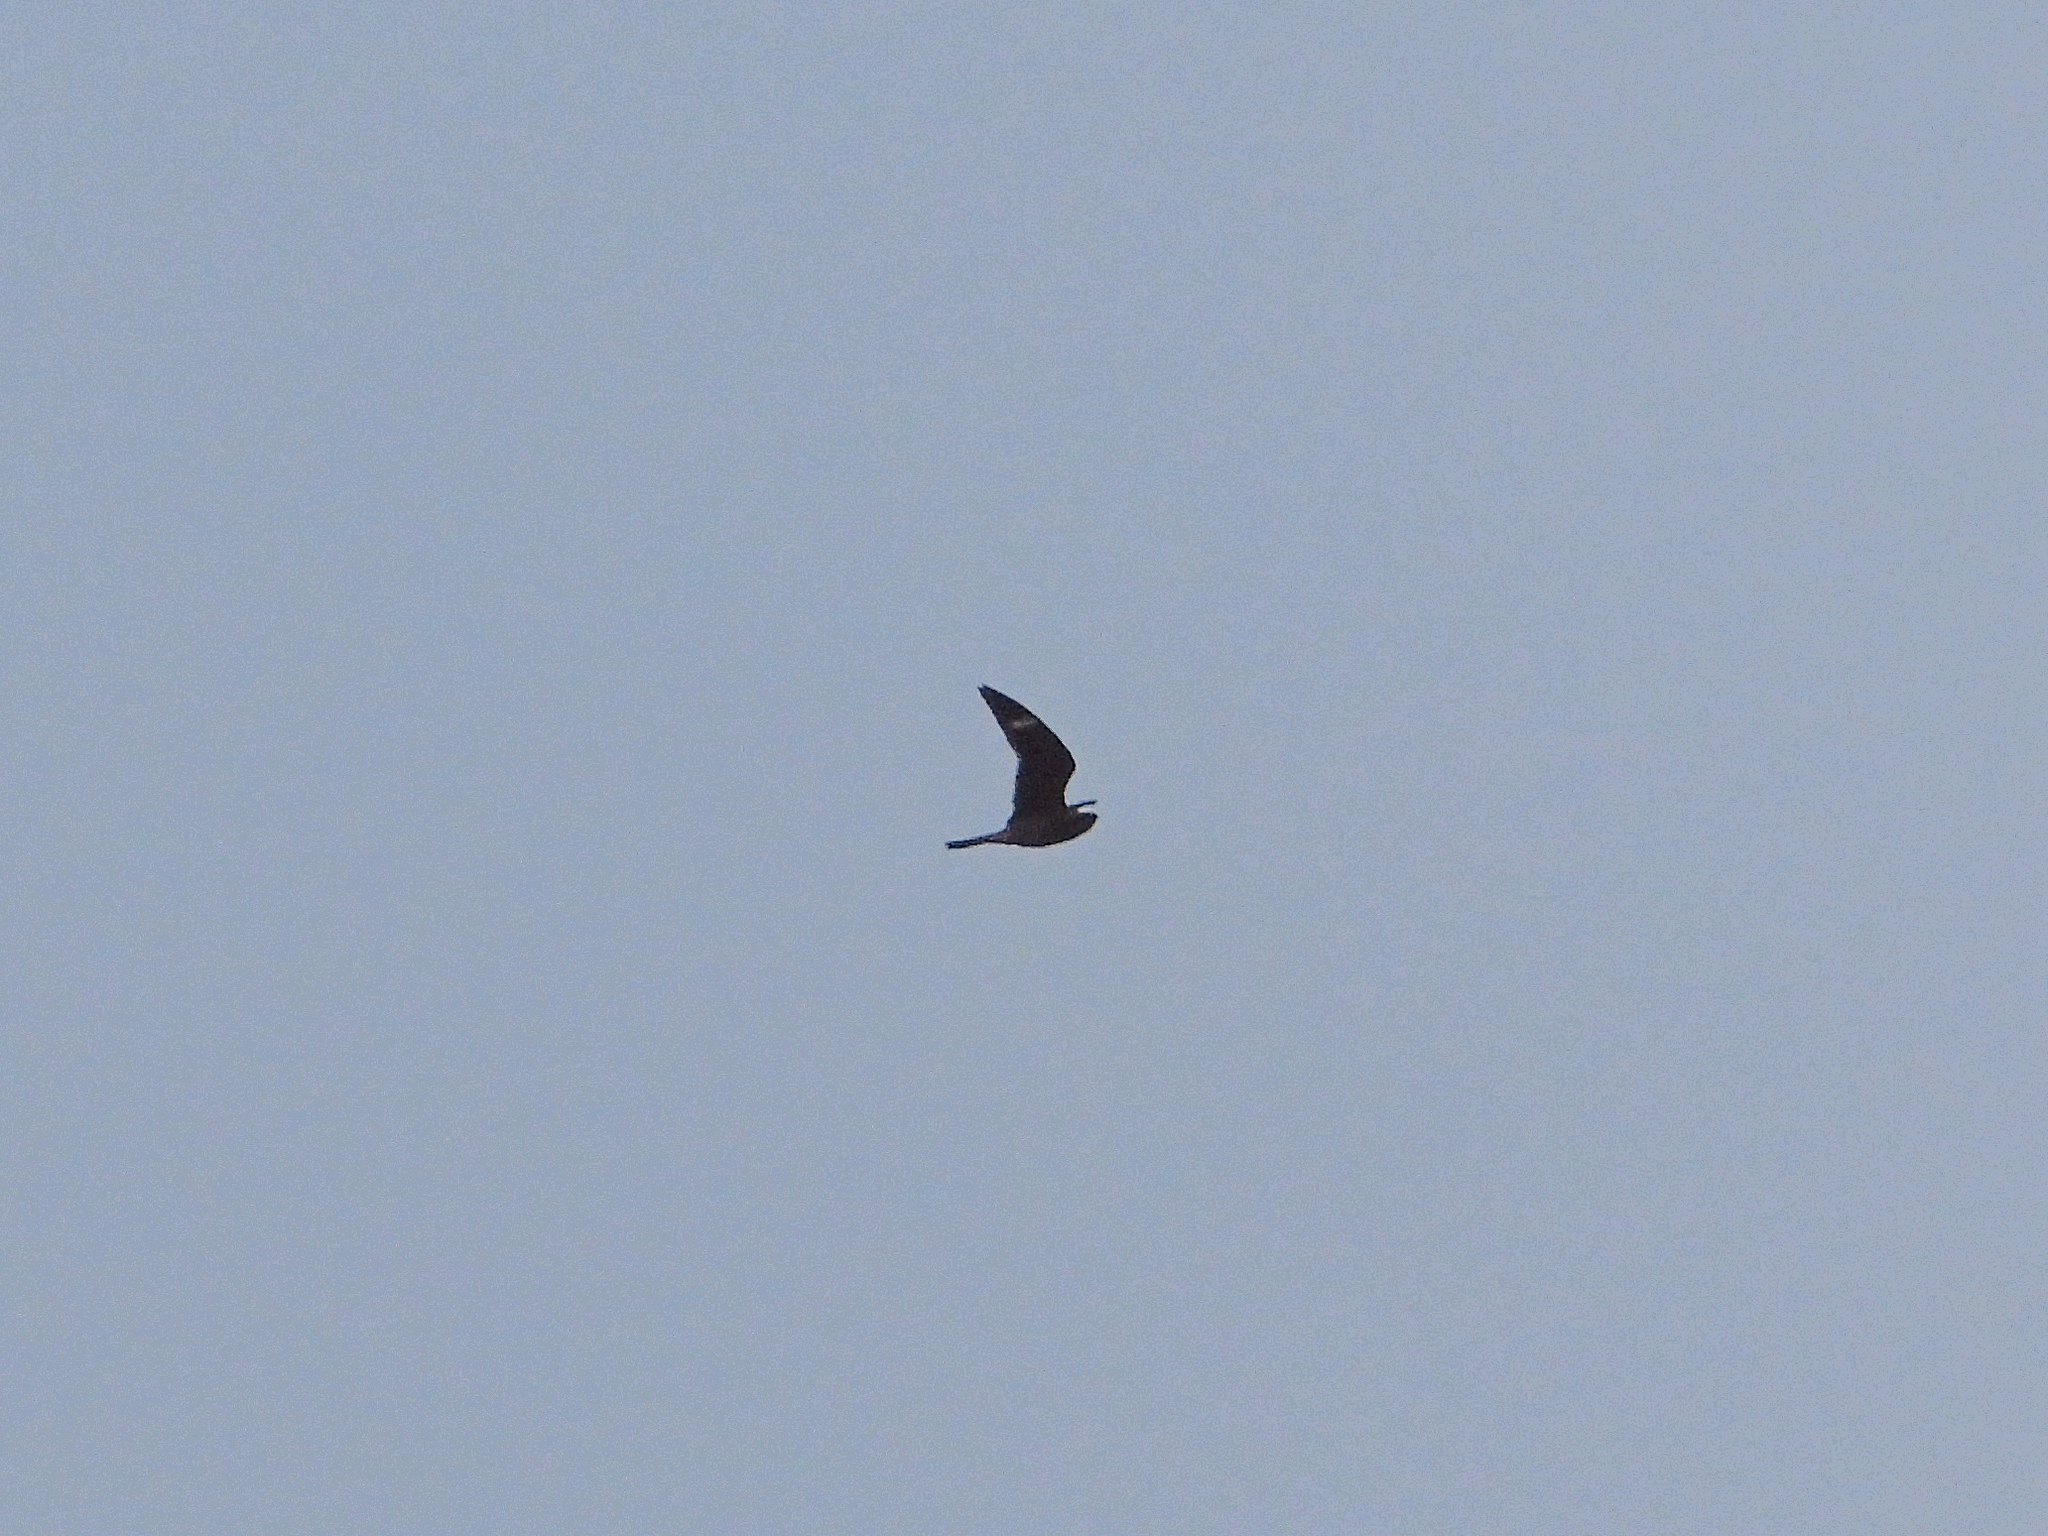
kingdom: Animalia
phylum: Chordata
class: Aves
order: Caprimulgiformes
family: Caprimulgidae
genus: Chordeiles
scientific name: Chordeiles minor
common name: Common nighthawk
